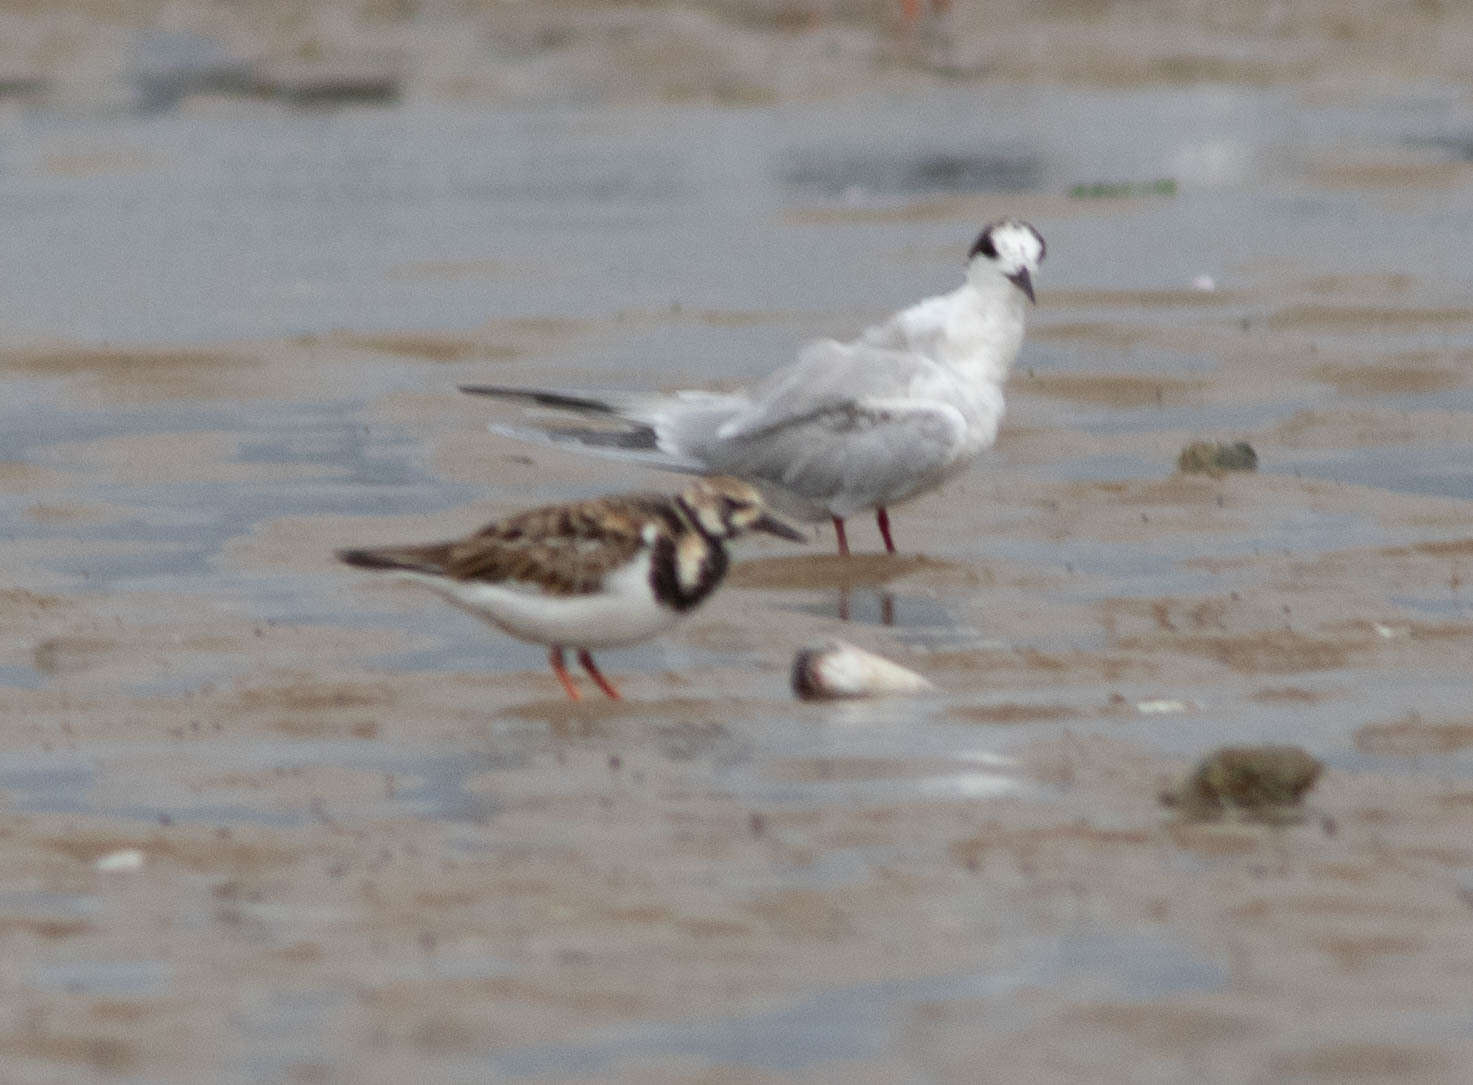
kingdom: Animalia
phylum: Chordata
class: Aves
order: Charadriiformes
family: Scolopacidae
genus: Arenaria
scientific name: Arenaria interpres
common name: Ruddy turnstone
